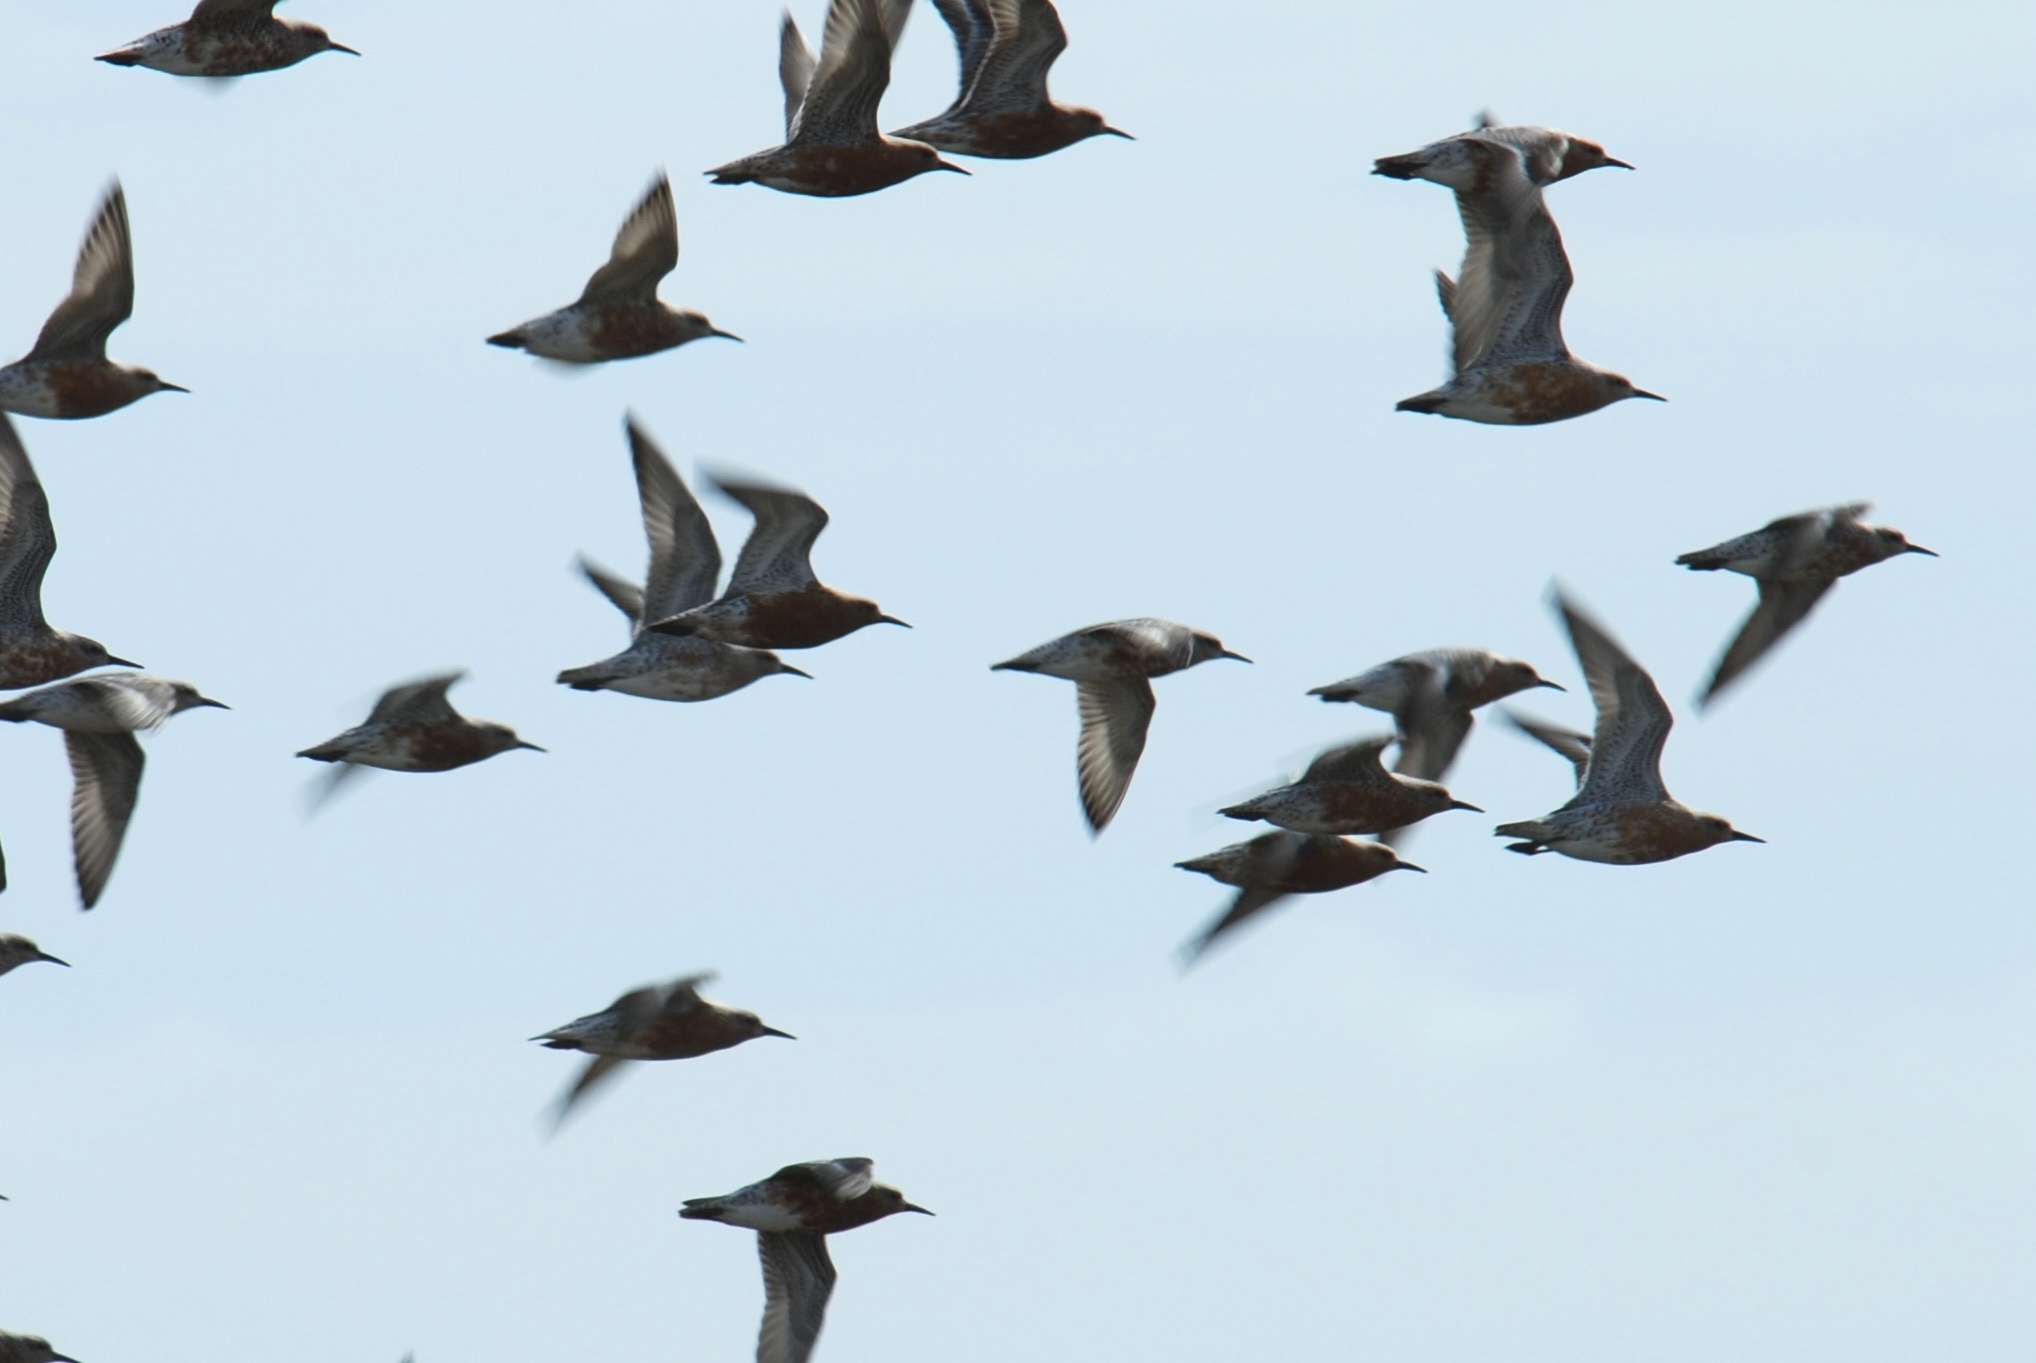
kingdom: Animalia
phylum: Chordata
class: Aves
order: Charadriiformes
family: Scolopacidae
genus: Calidris
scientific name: Calidris canutus
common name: Red knot
